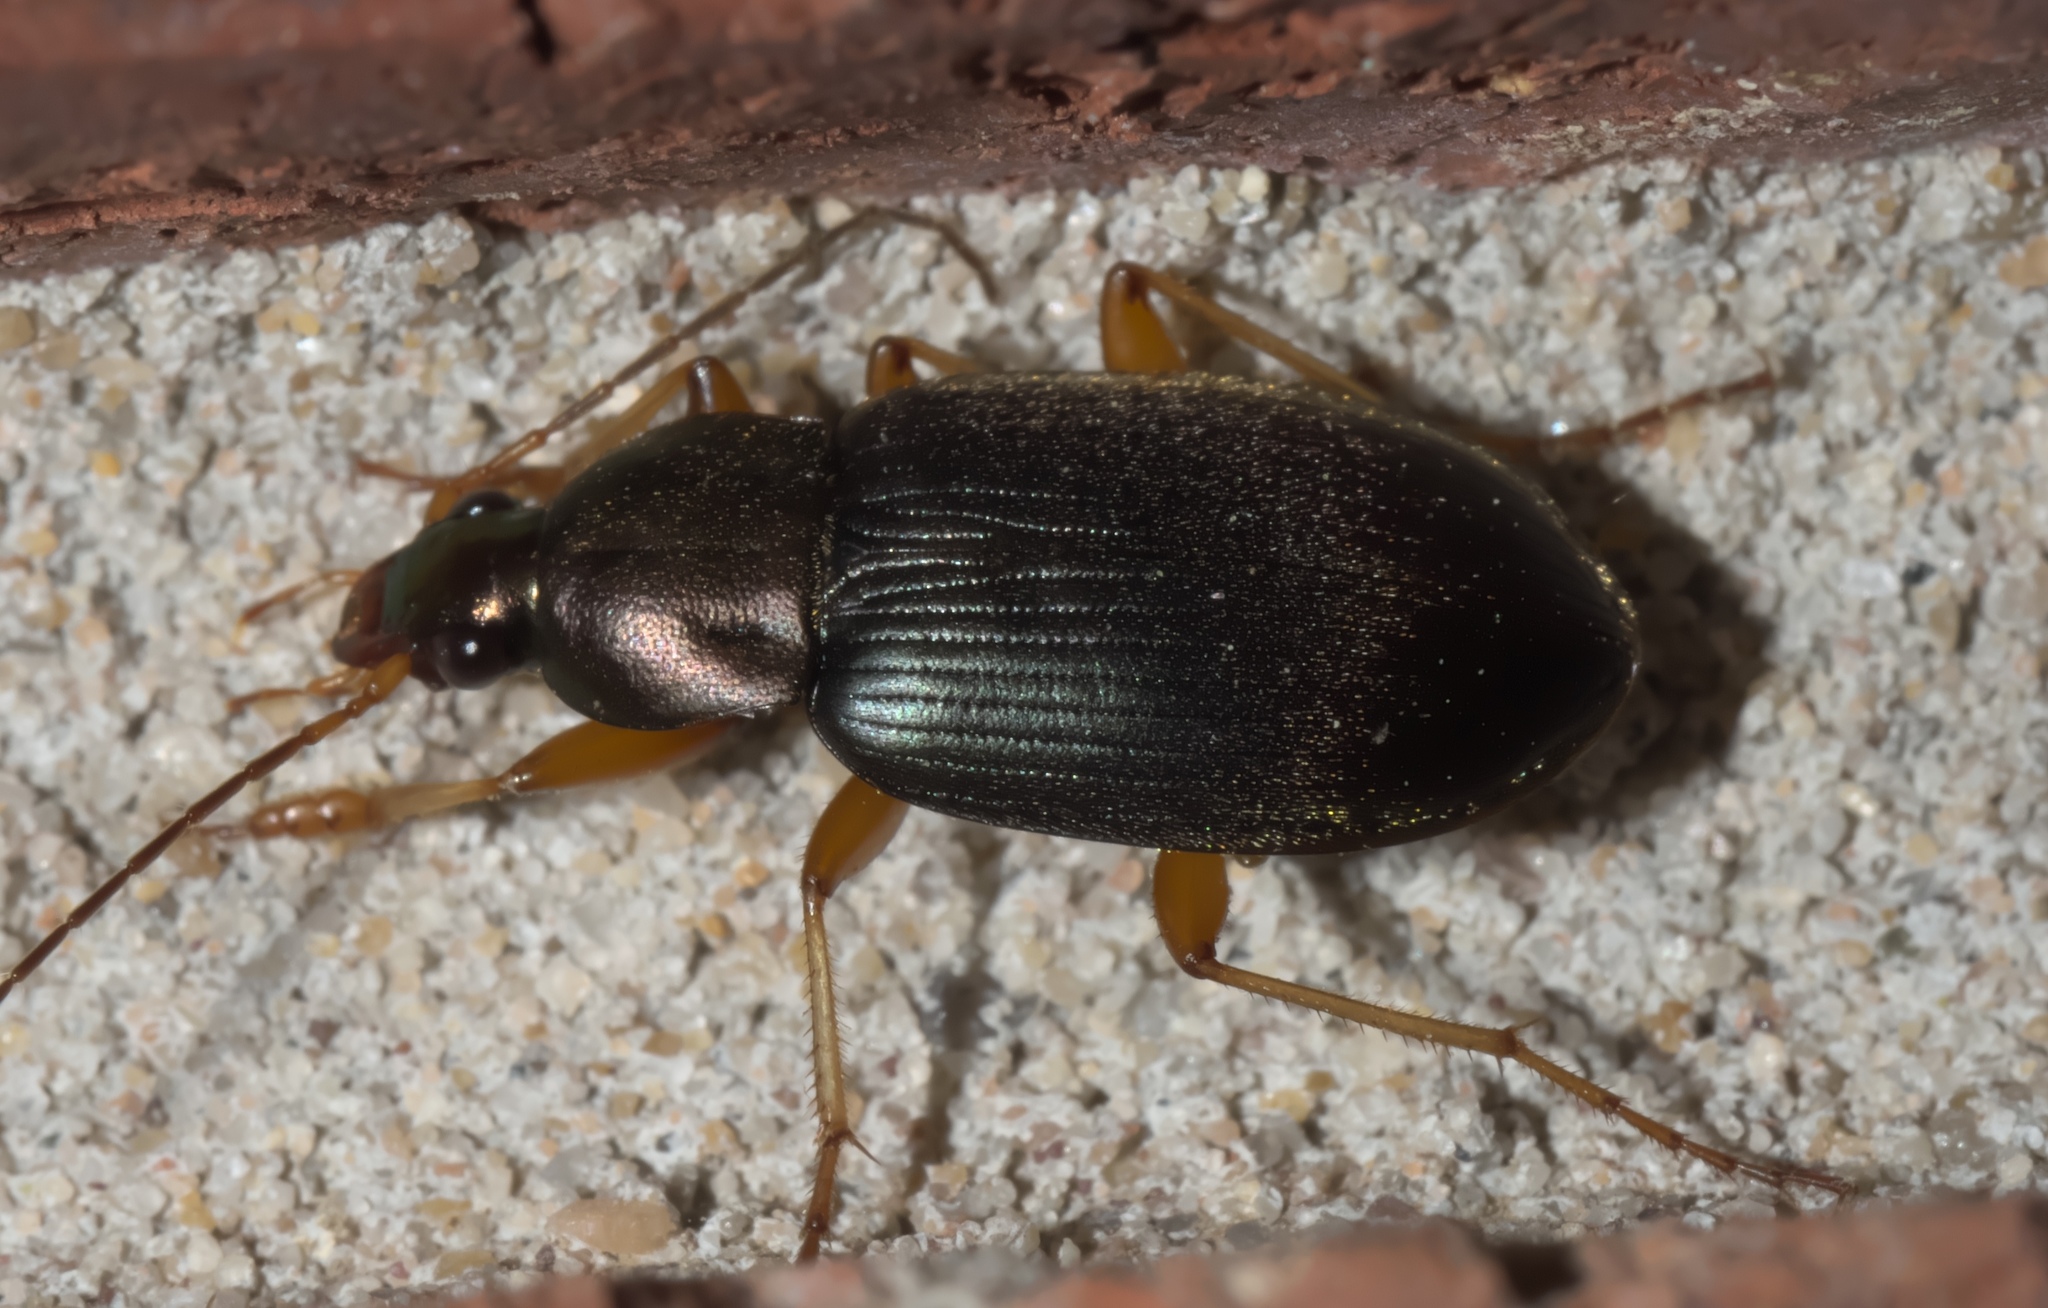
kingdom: Animalia
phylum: Arthropoda
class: Insecta
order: Coleoptera
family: Carabidae
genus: Chlaenius
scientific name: Chlaenius tricolor
